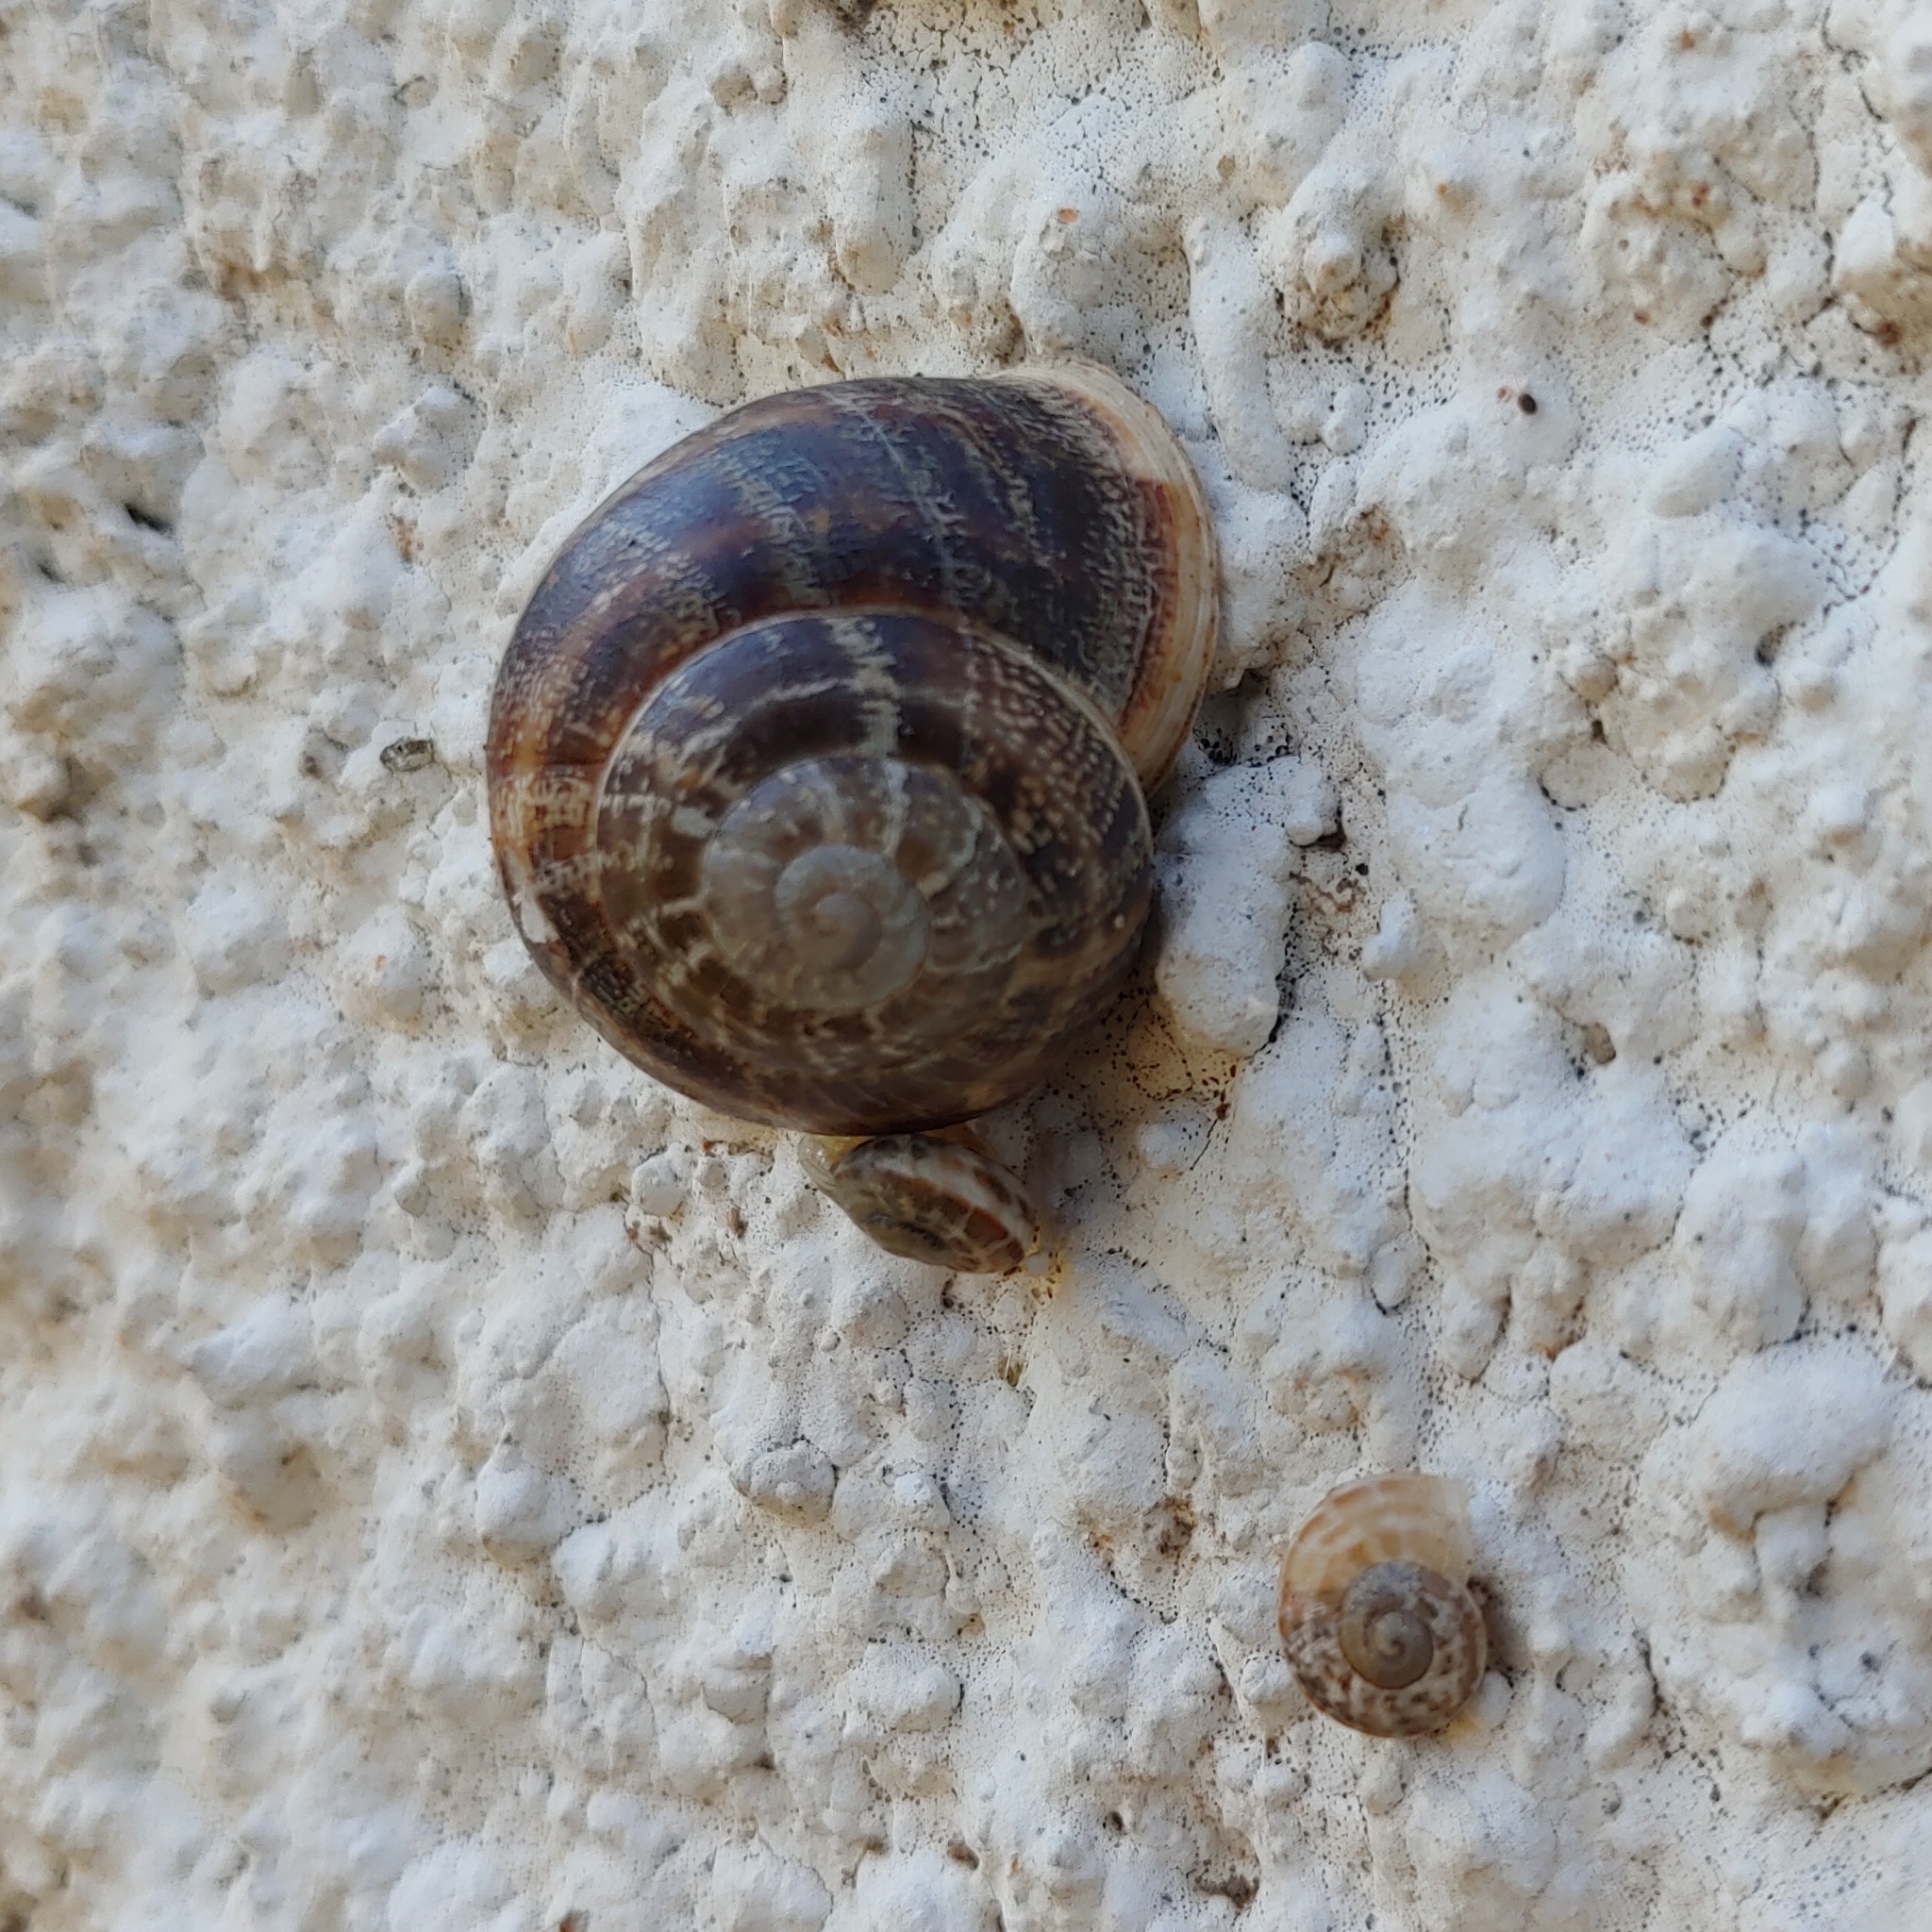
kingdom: Animalia
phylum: Mollusca
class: Gastropoda
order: Stylommatophora
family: Helicidae
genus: Eobania
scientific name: Eobania vermiculata
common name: Chocolateband snail
